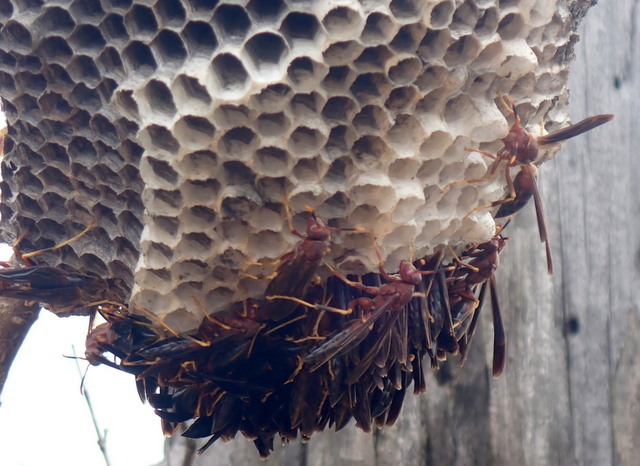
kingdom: Animalia
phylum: Arthropoda
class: Insecta
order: Hymenoptera
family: Eumenidae
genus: Polistes
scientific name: Polistes annularis
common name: Ringed paper wasp
